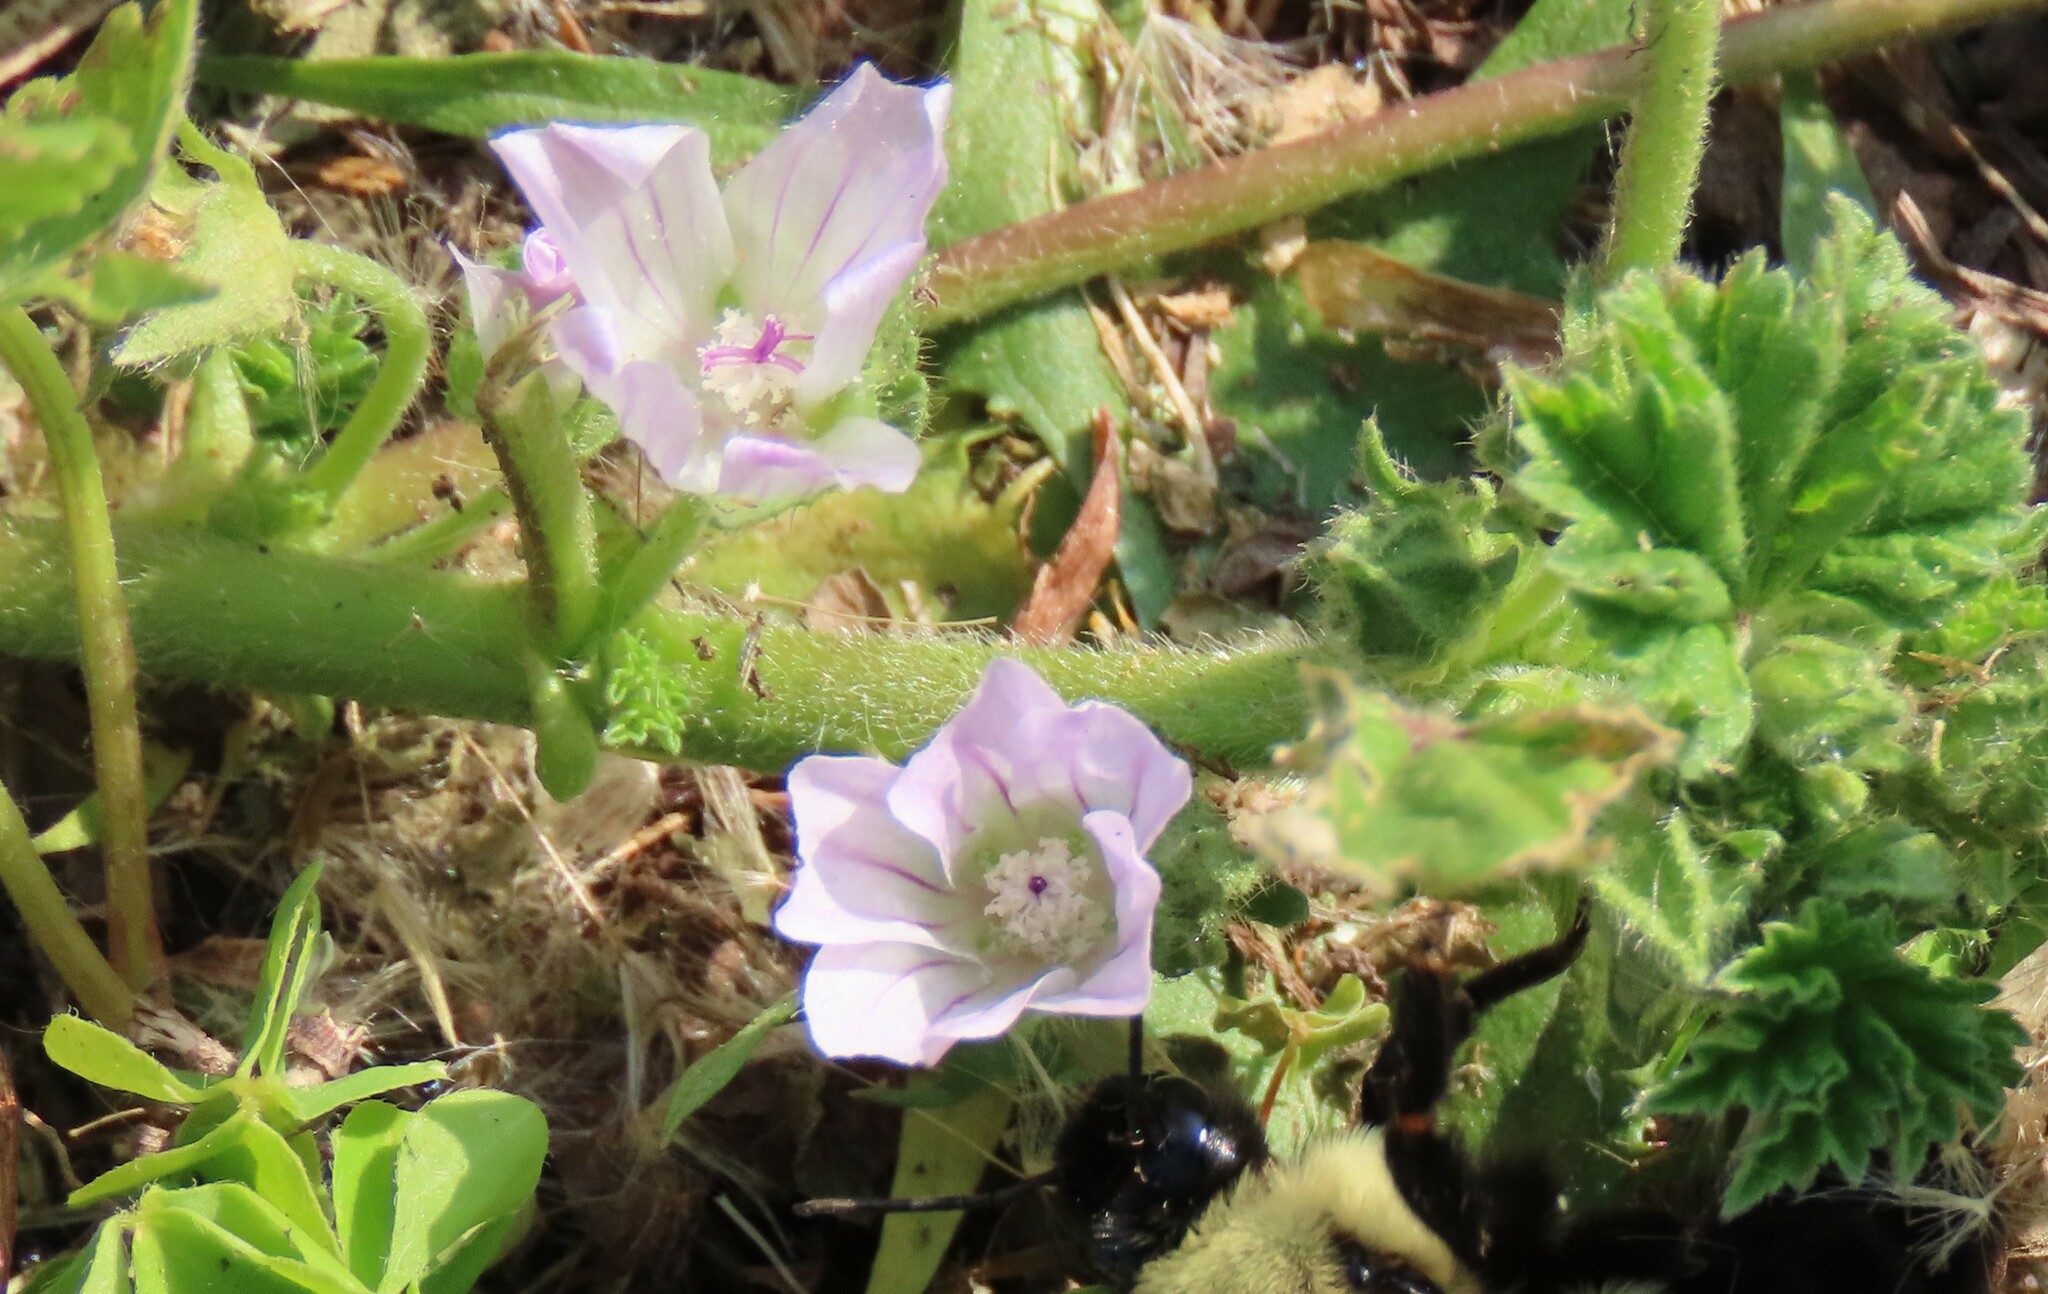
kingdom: Plantae
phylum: Tracheophyta
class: Magnoliopsida
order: Malvales
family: Malvaceae
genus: Malva
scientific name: Malva neglecta
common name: Common mallow
